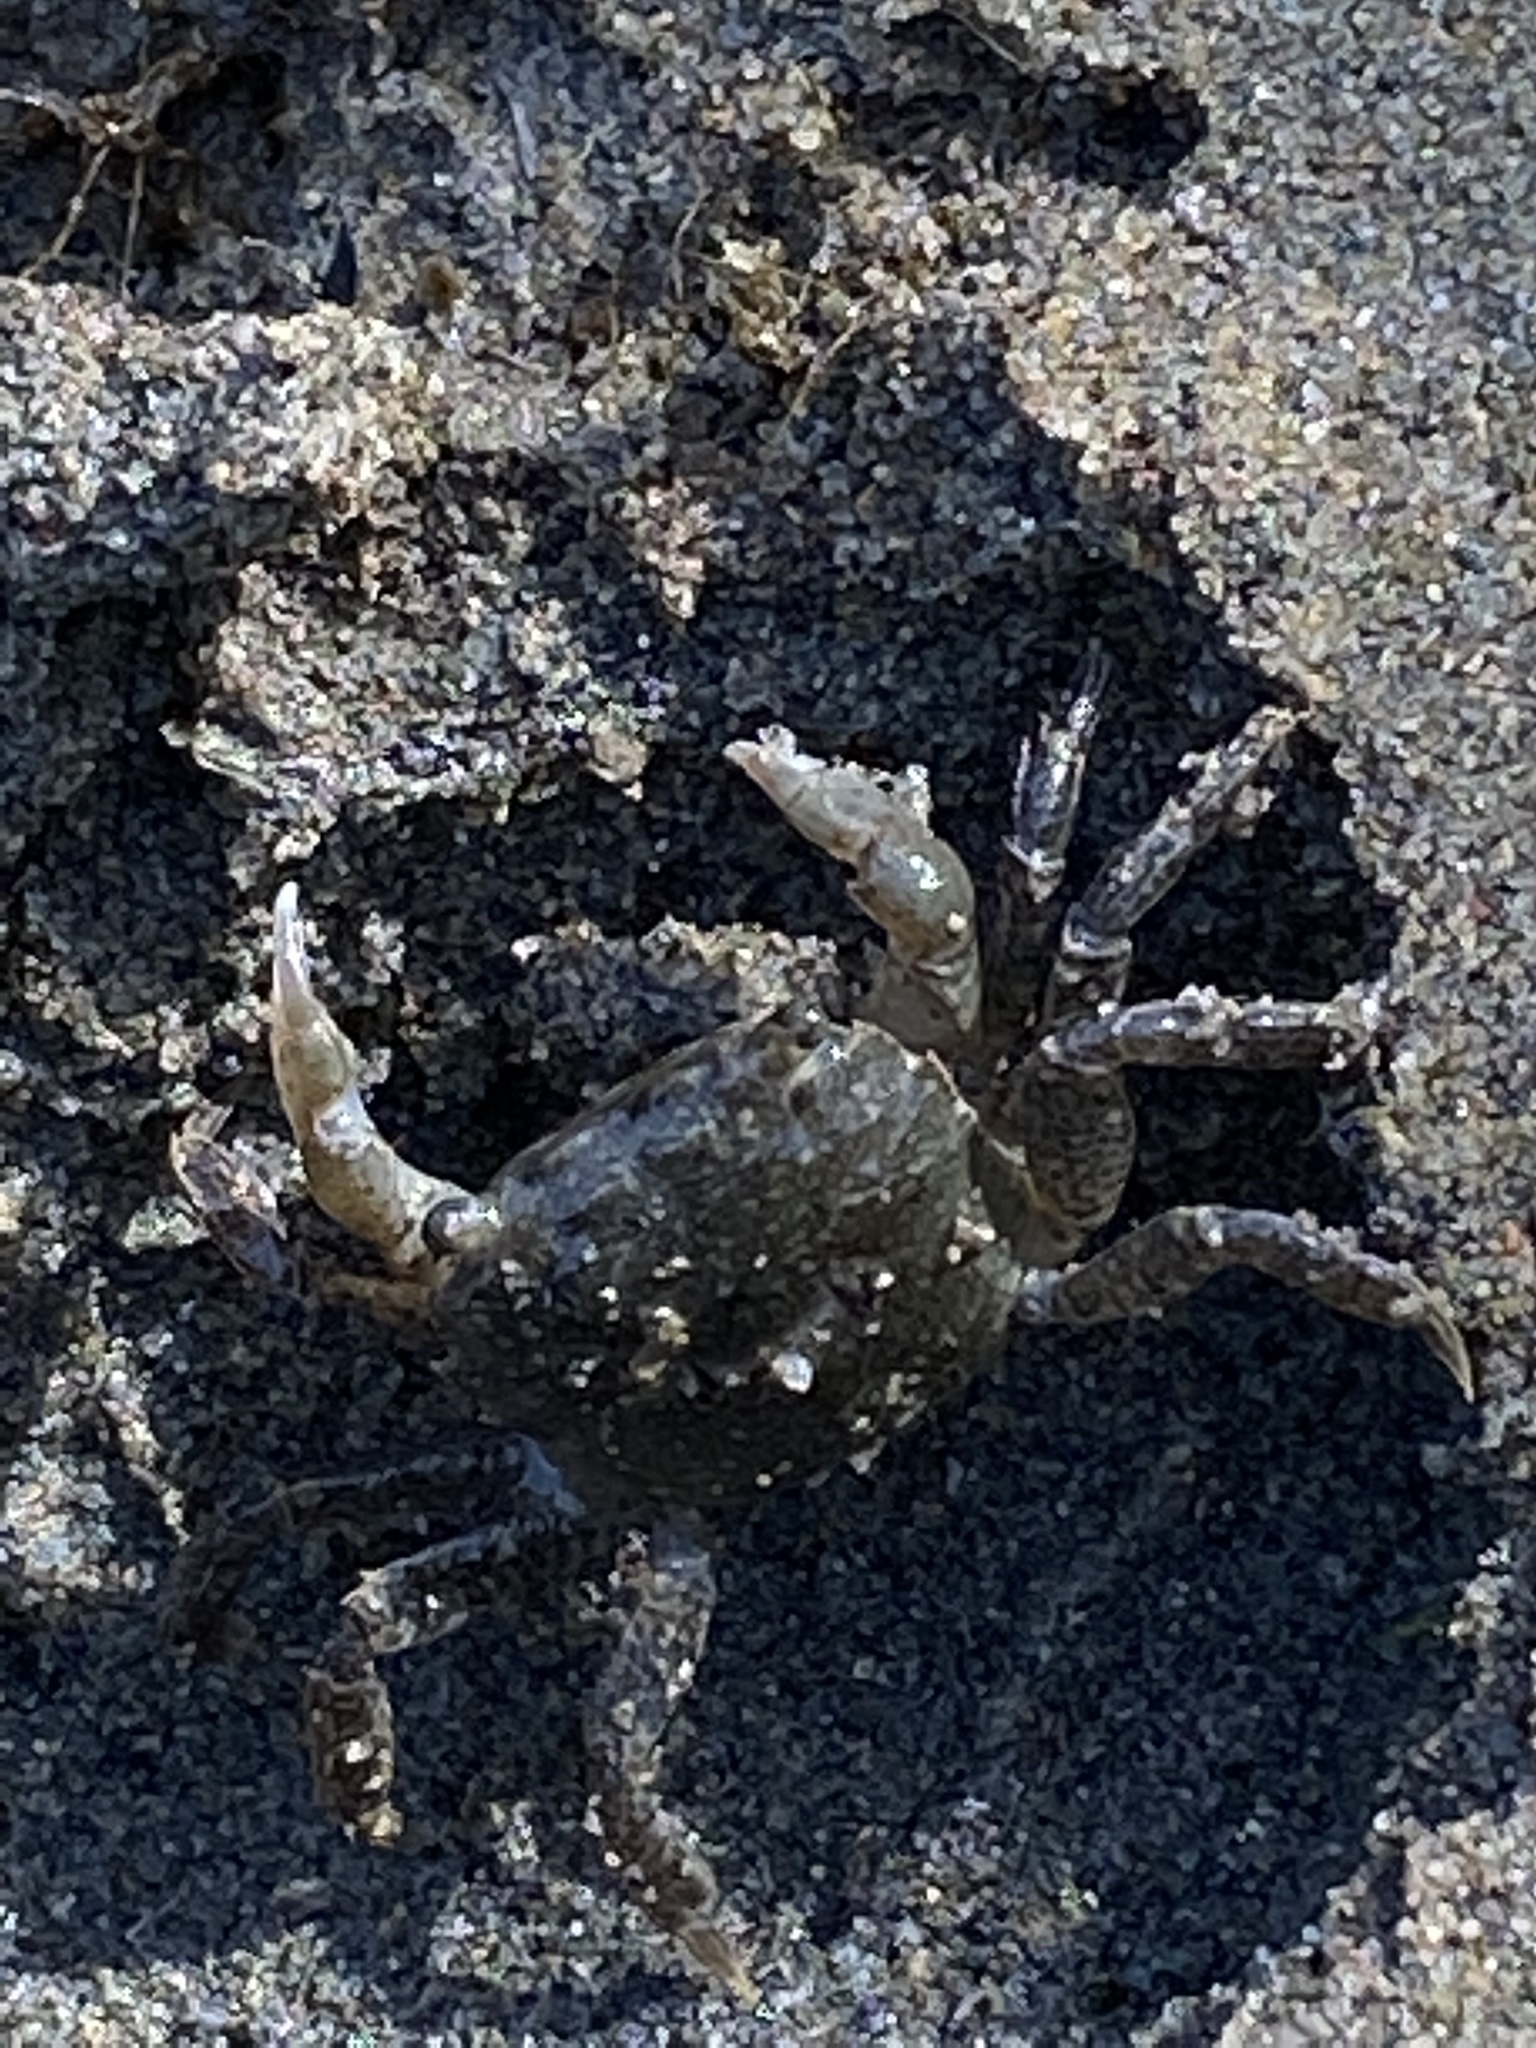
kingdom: Animalia
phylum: Arthropoda
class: Malacostraca
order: Decapoda
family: Varunidae
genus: Hemigrapsus
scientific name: Hemigrapsus oregonensis
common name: Yellow shore crab
